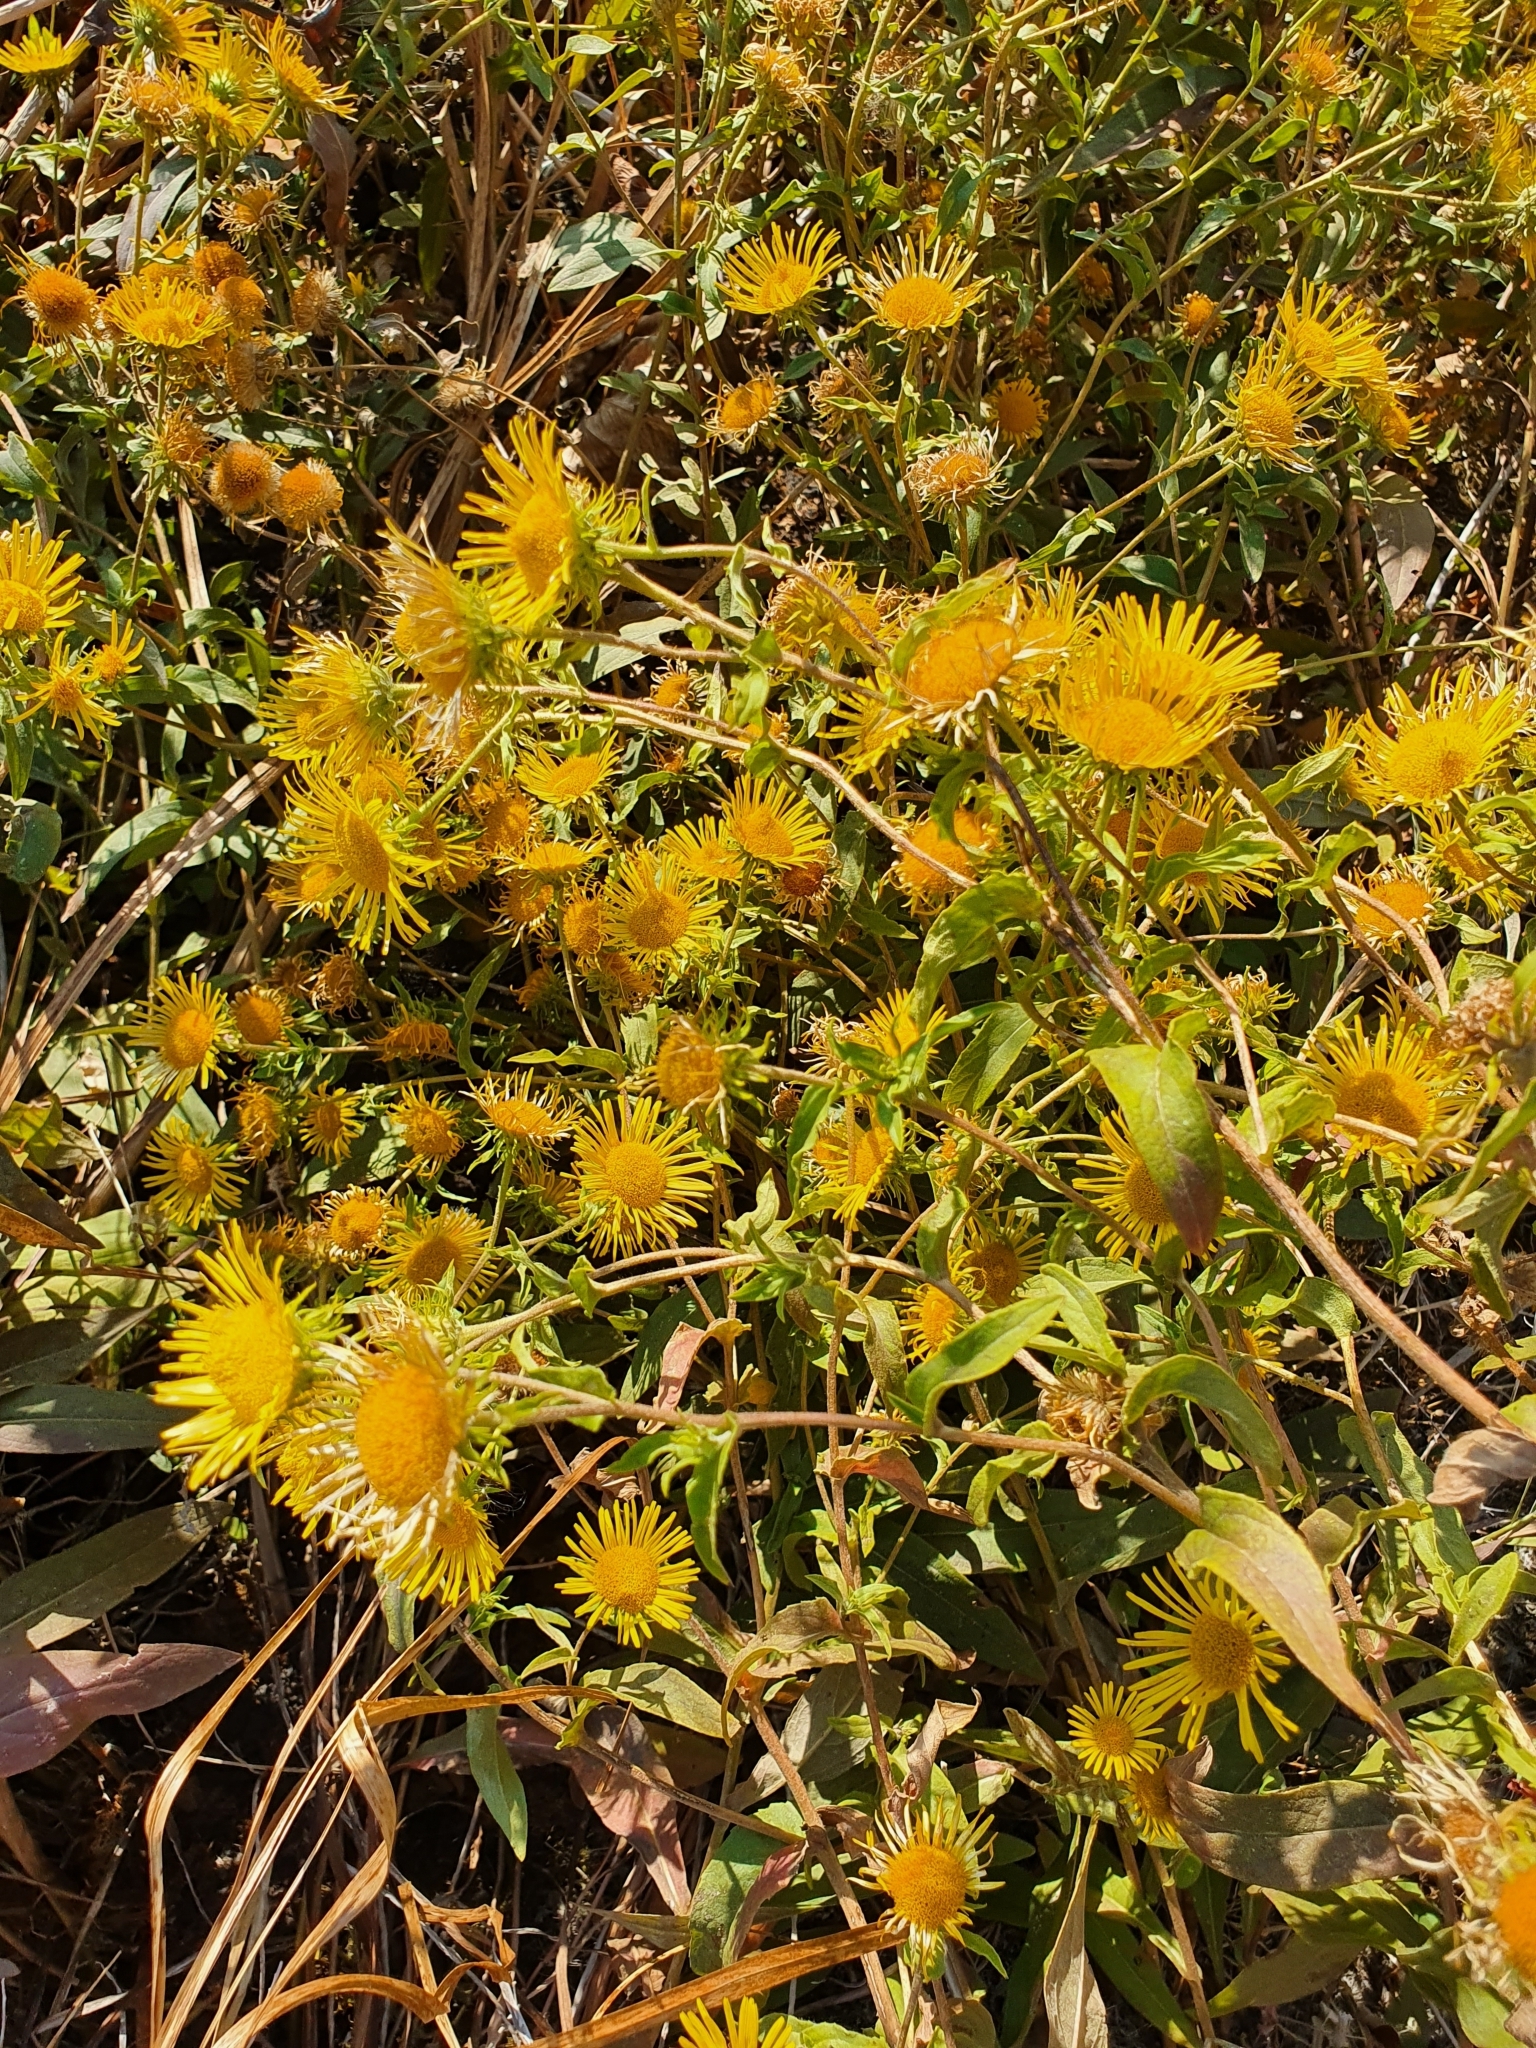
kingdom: Plantae
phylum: Tracheophyta
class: Magnoliopsida
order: Asterales
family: Asteraceae
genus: Pentanema
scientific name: Pentanema britannicum
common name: British elecampane
